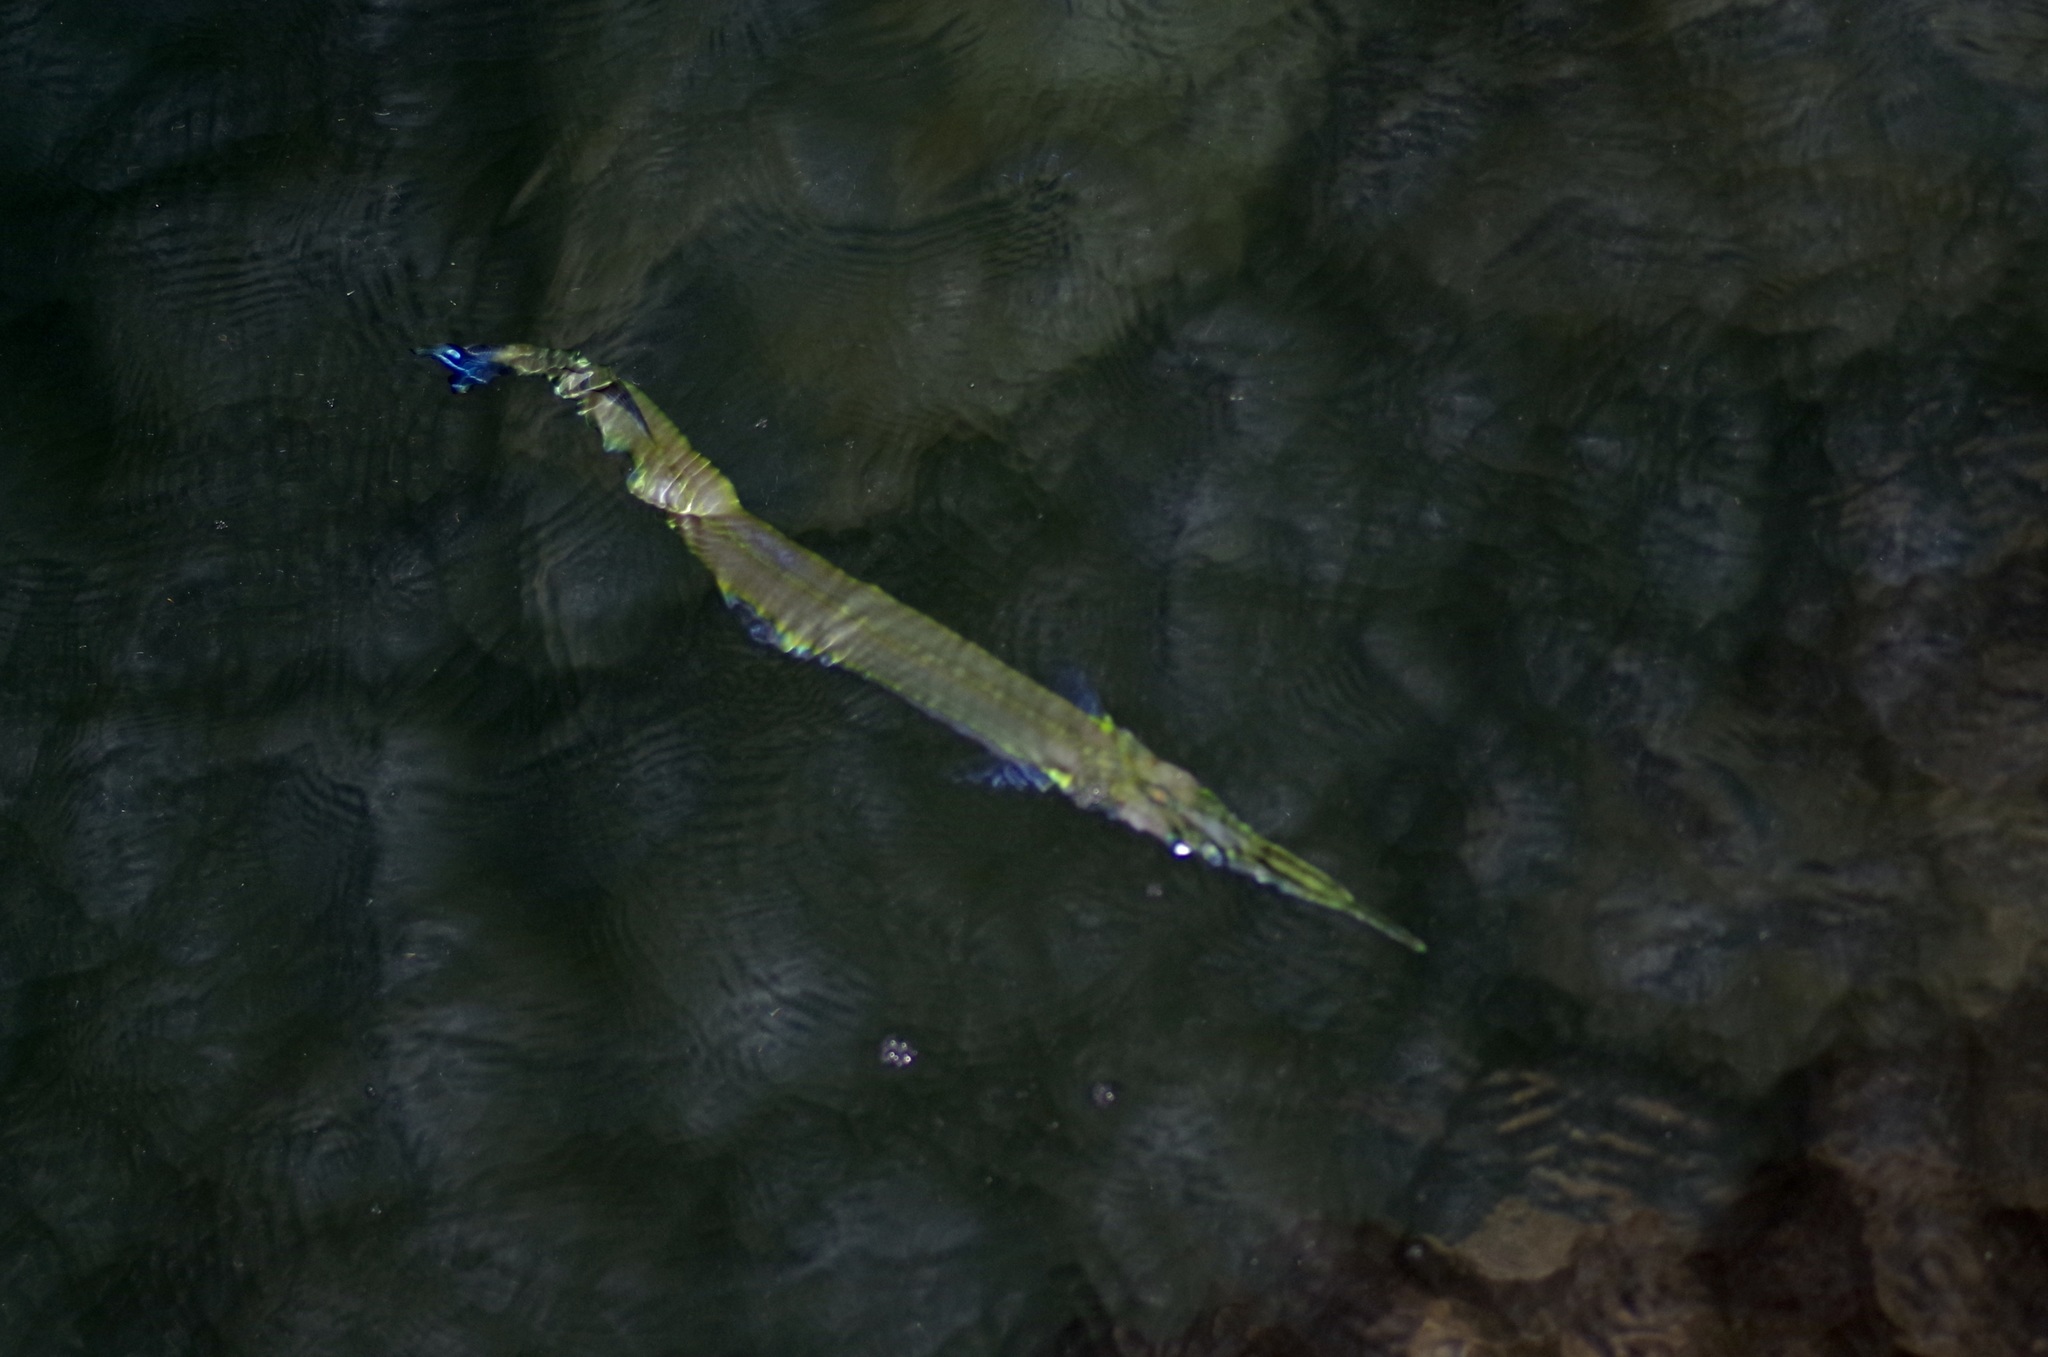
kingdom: Animalia
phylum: Chordata
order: Beloniformes
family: Belonidae
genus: Strongylura
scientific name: Strongylura marina
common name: Atlantic needlefish
